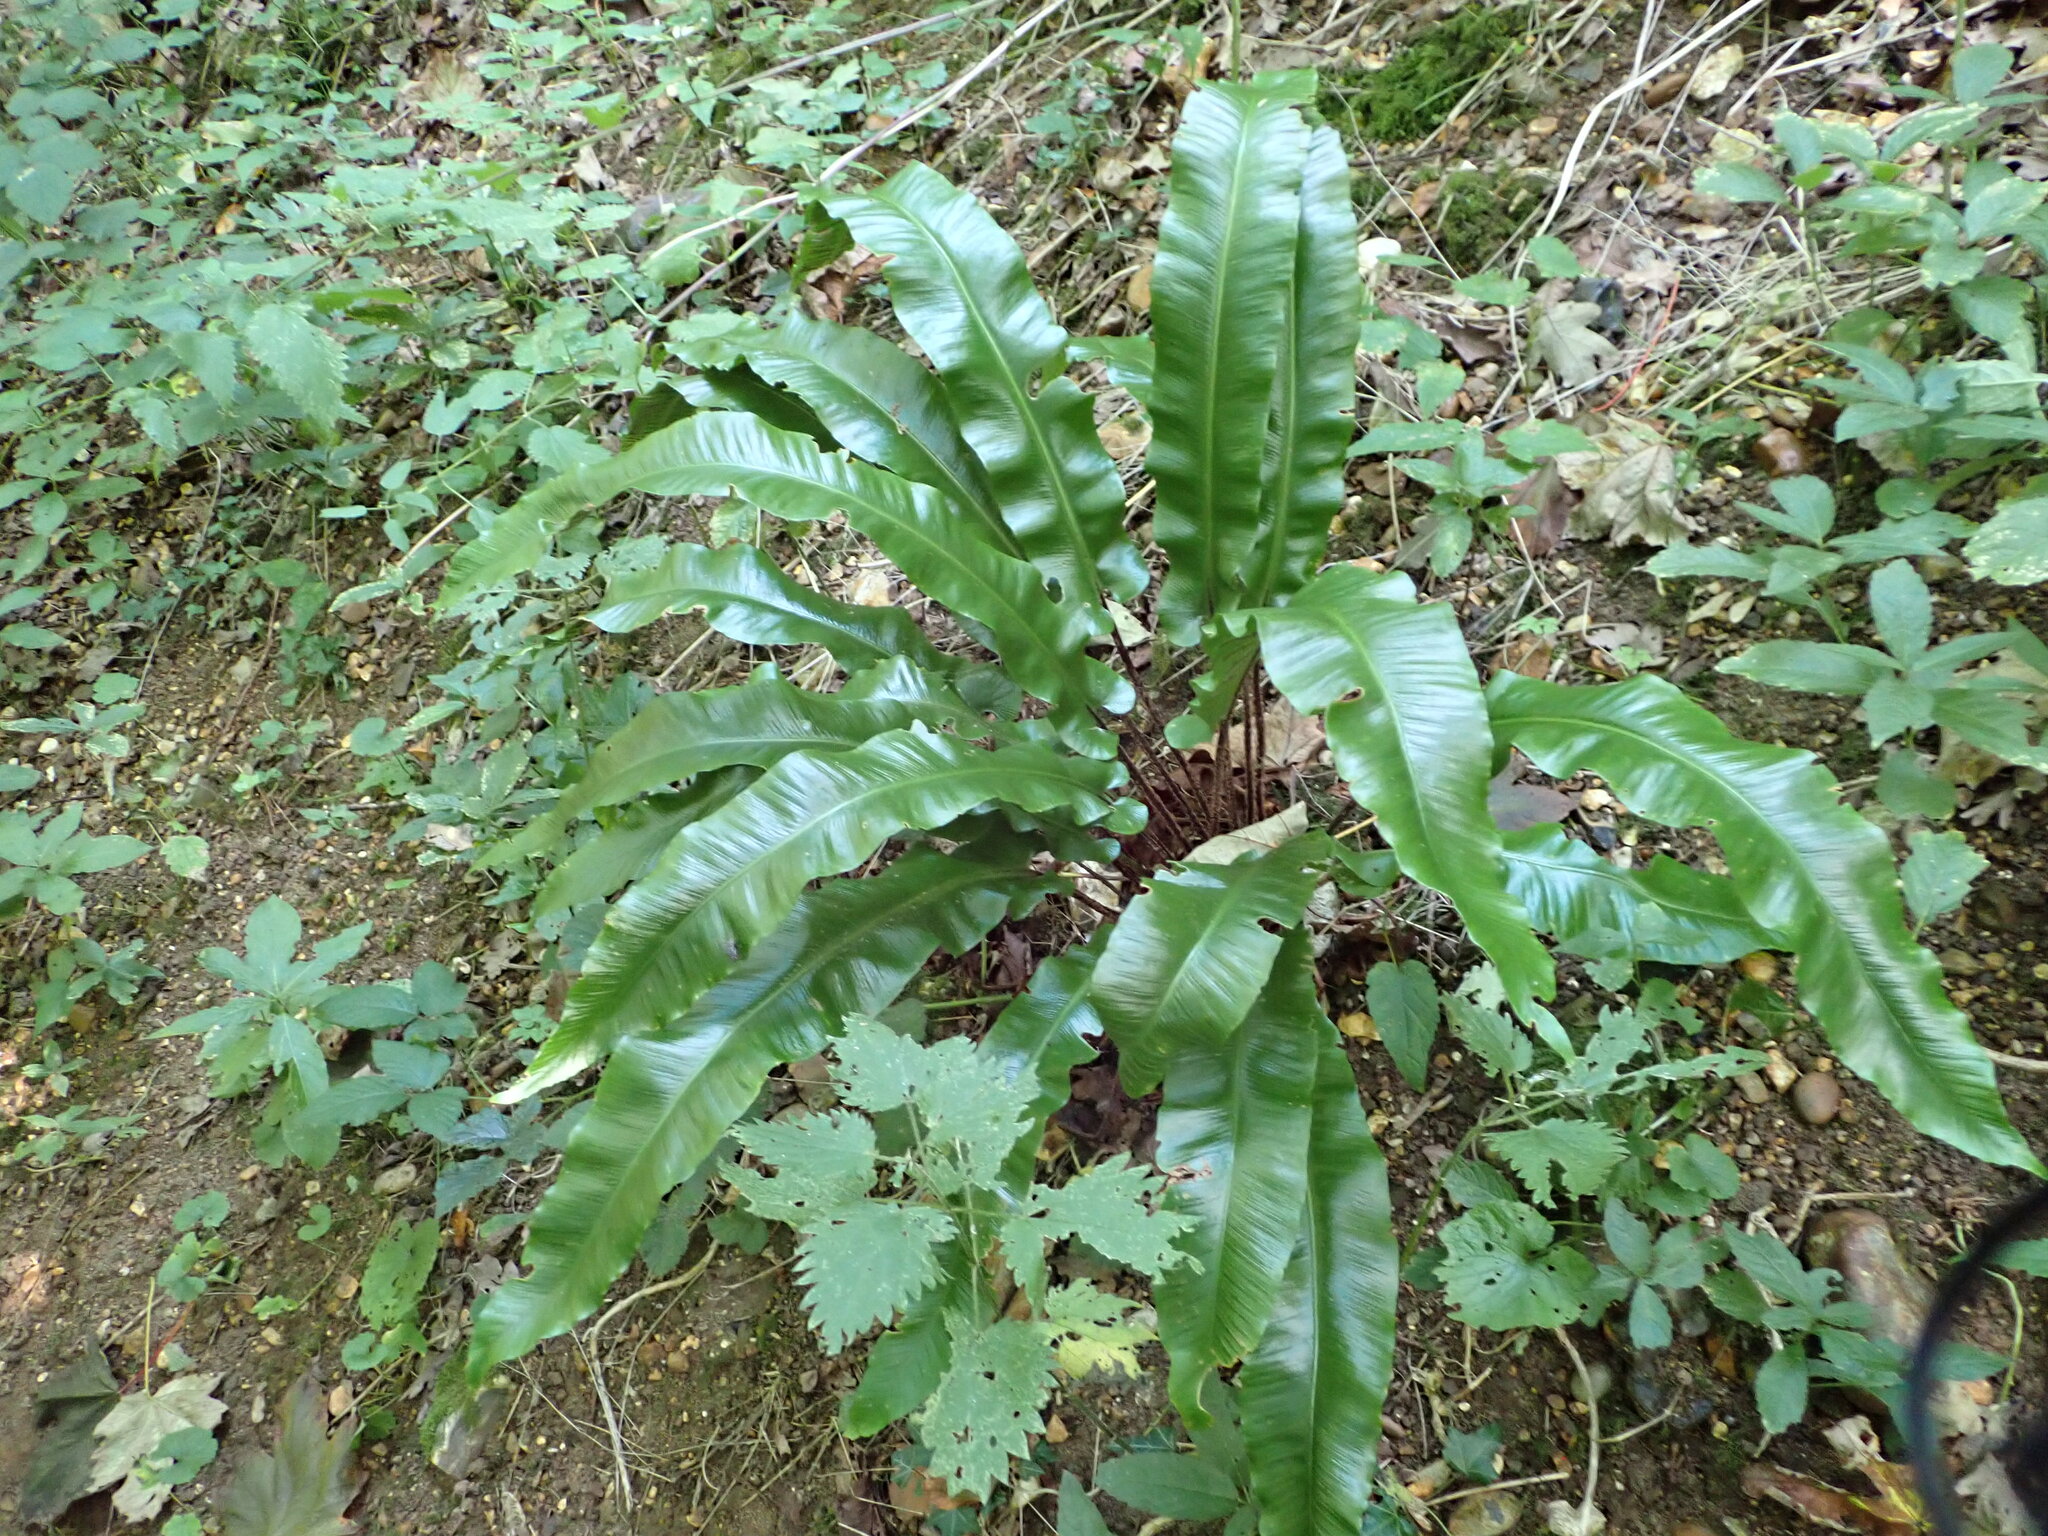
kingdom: Plantae
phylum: Tracheophyta
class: Polypodiopsida
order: Polypodiales
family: Aspleniaceae
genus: Asplenium
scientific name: Asplenium scolopendrium
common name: Hart's-tongue fern
